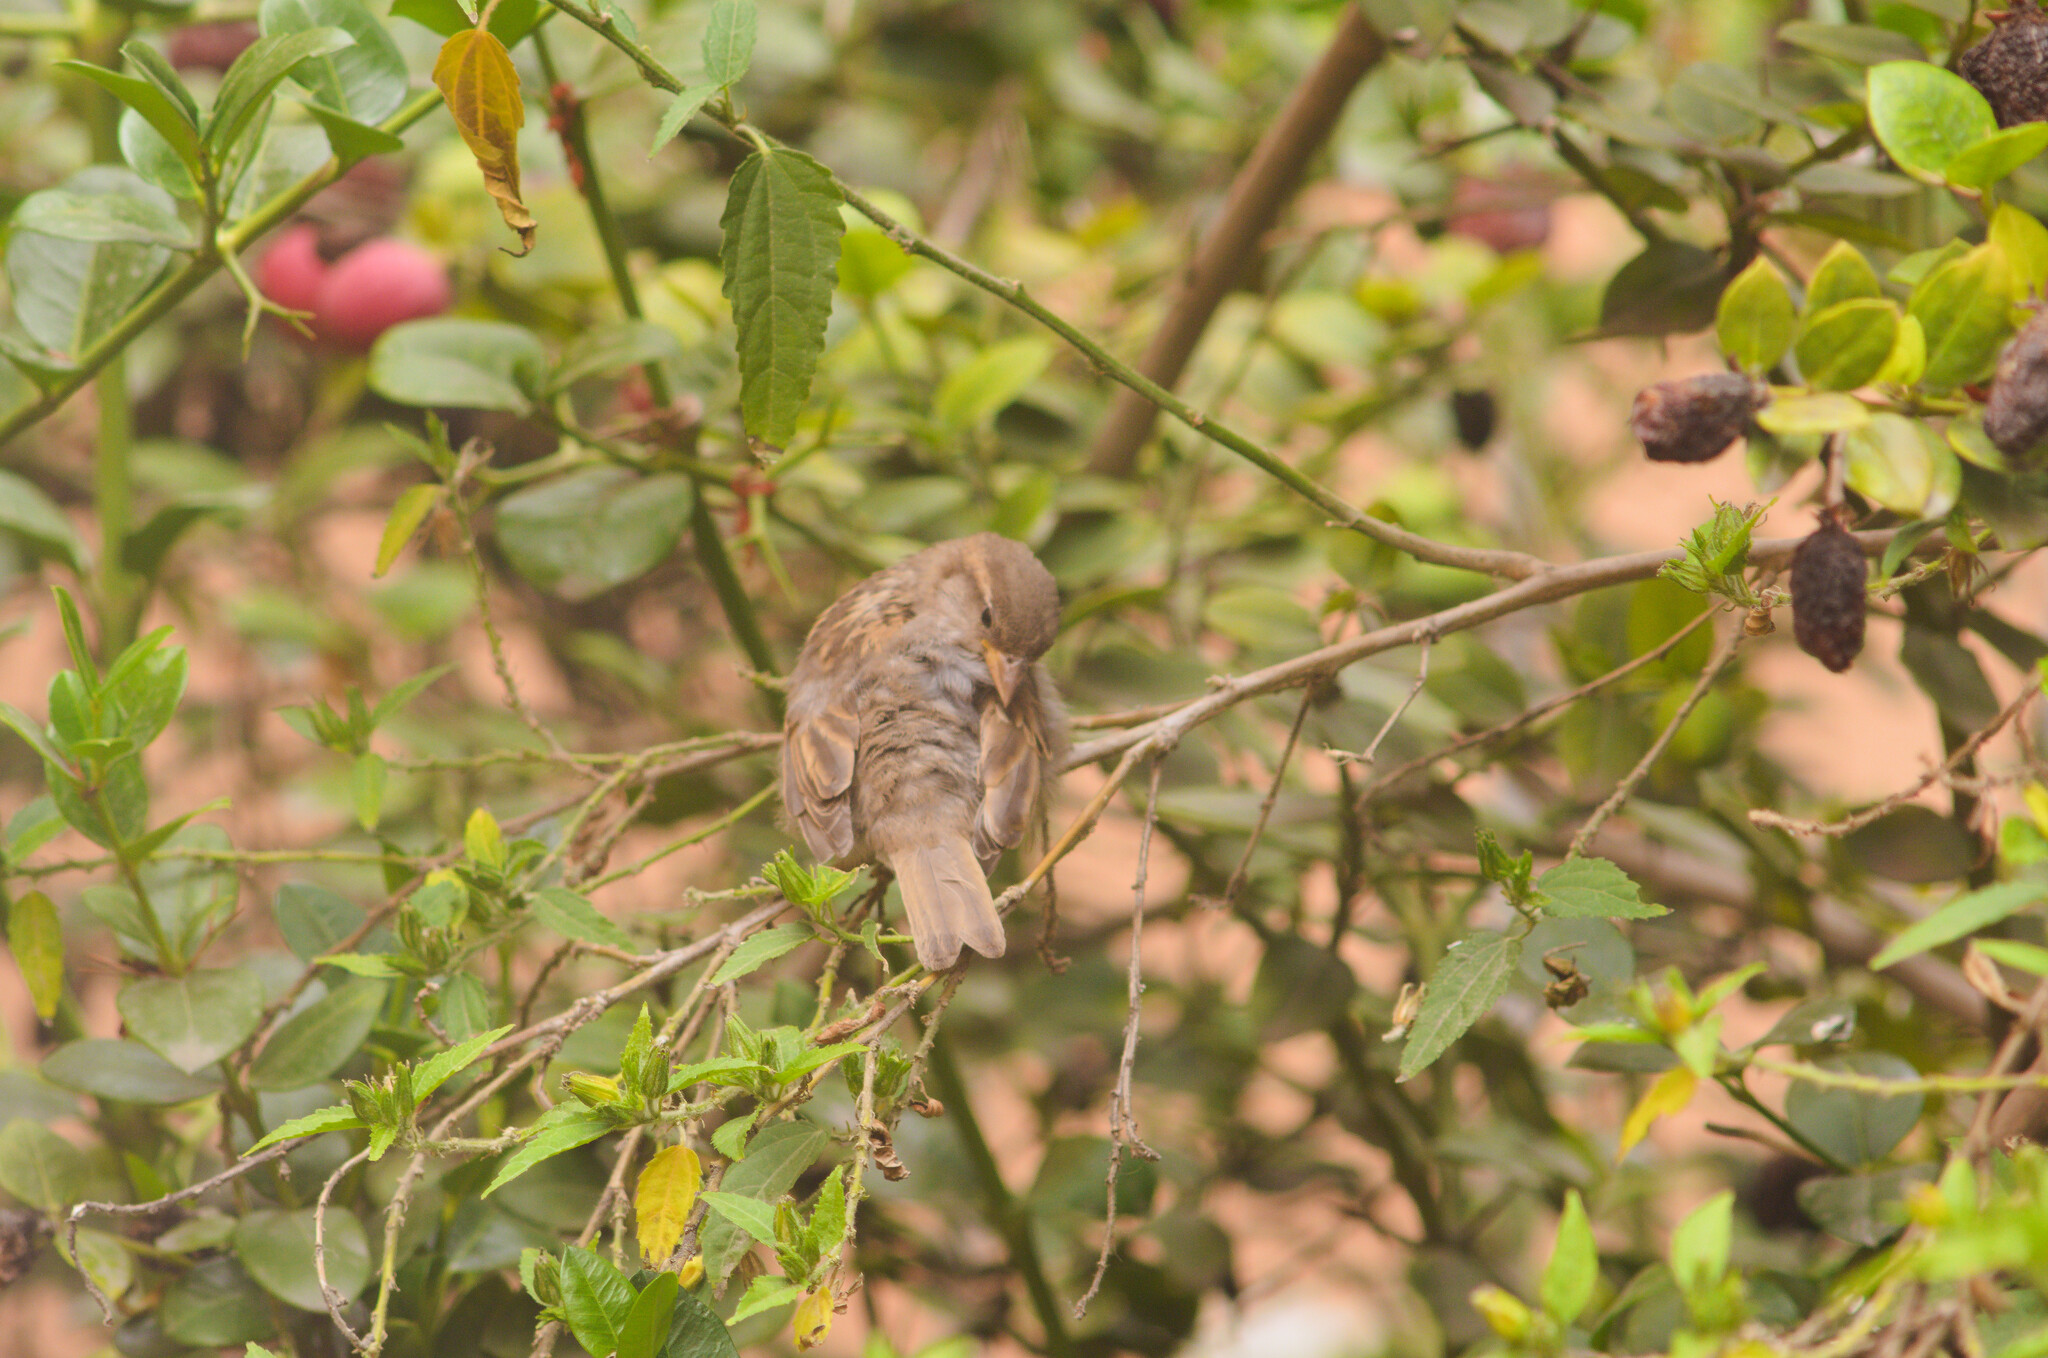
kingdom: Animalia
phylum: Chordata
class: Aves
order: Passeriformes
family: Passeridae
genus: Passer
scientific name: Passer domesticus
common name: House sparrow
